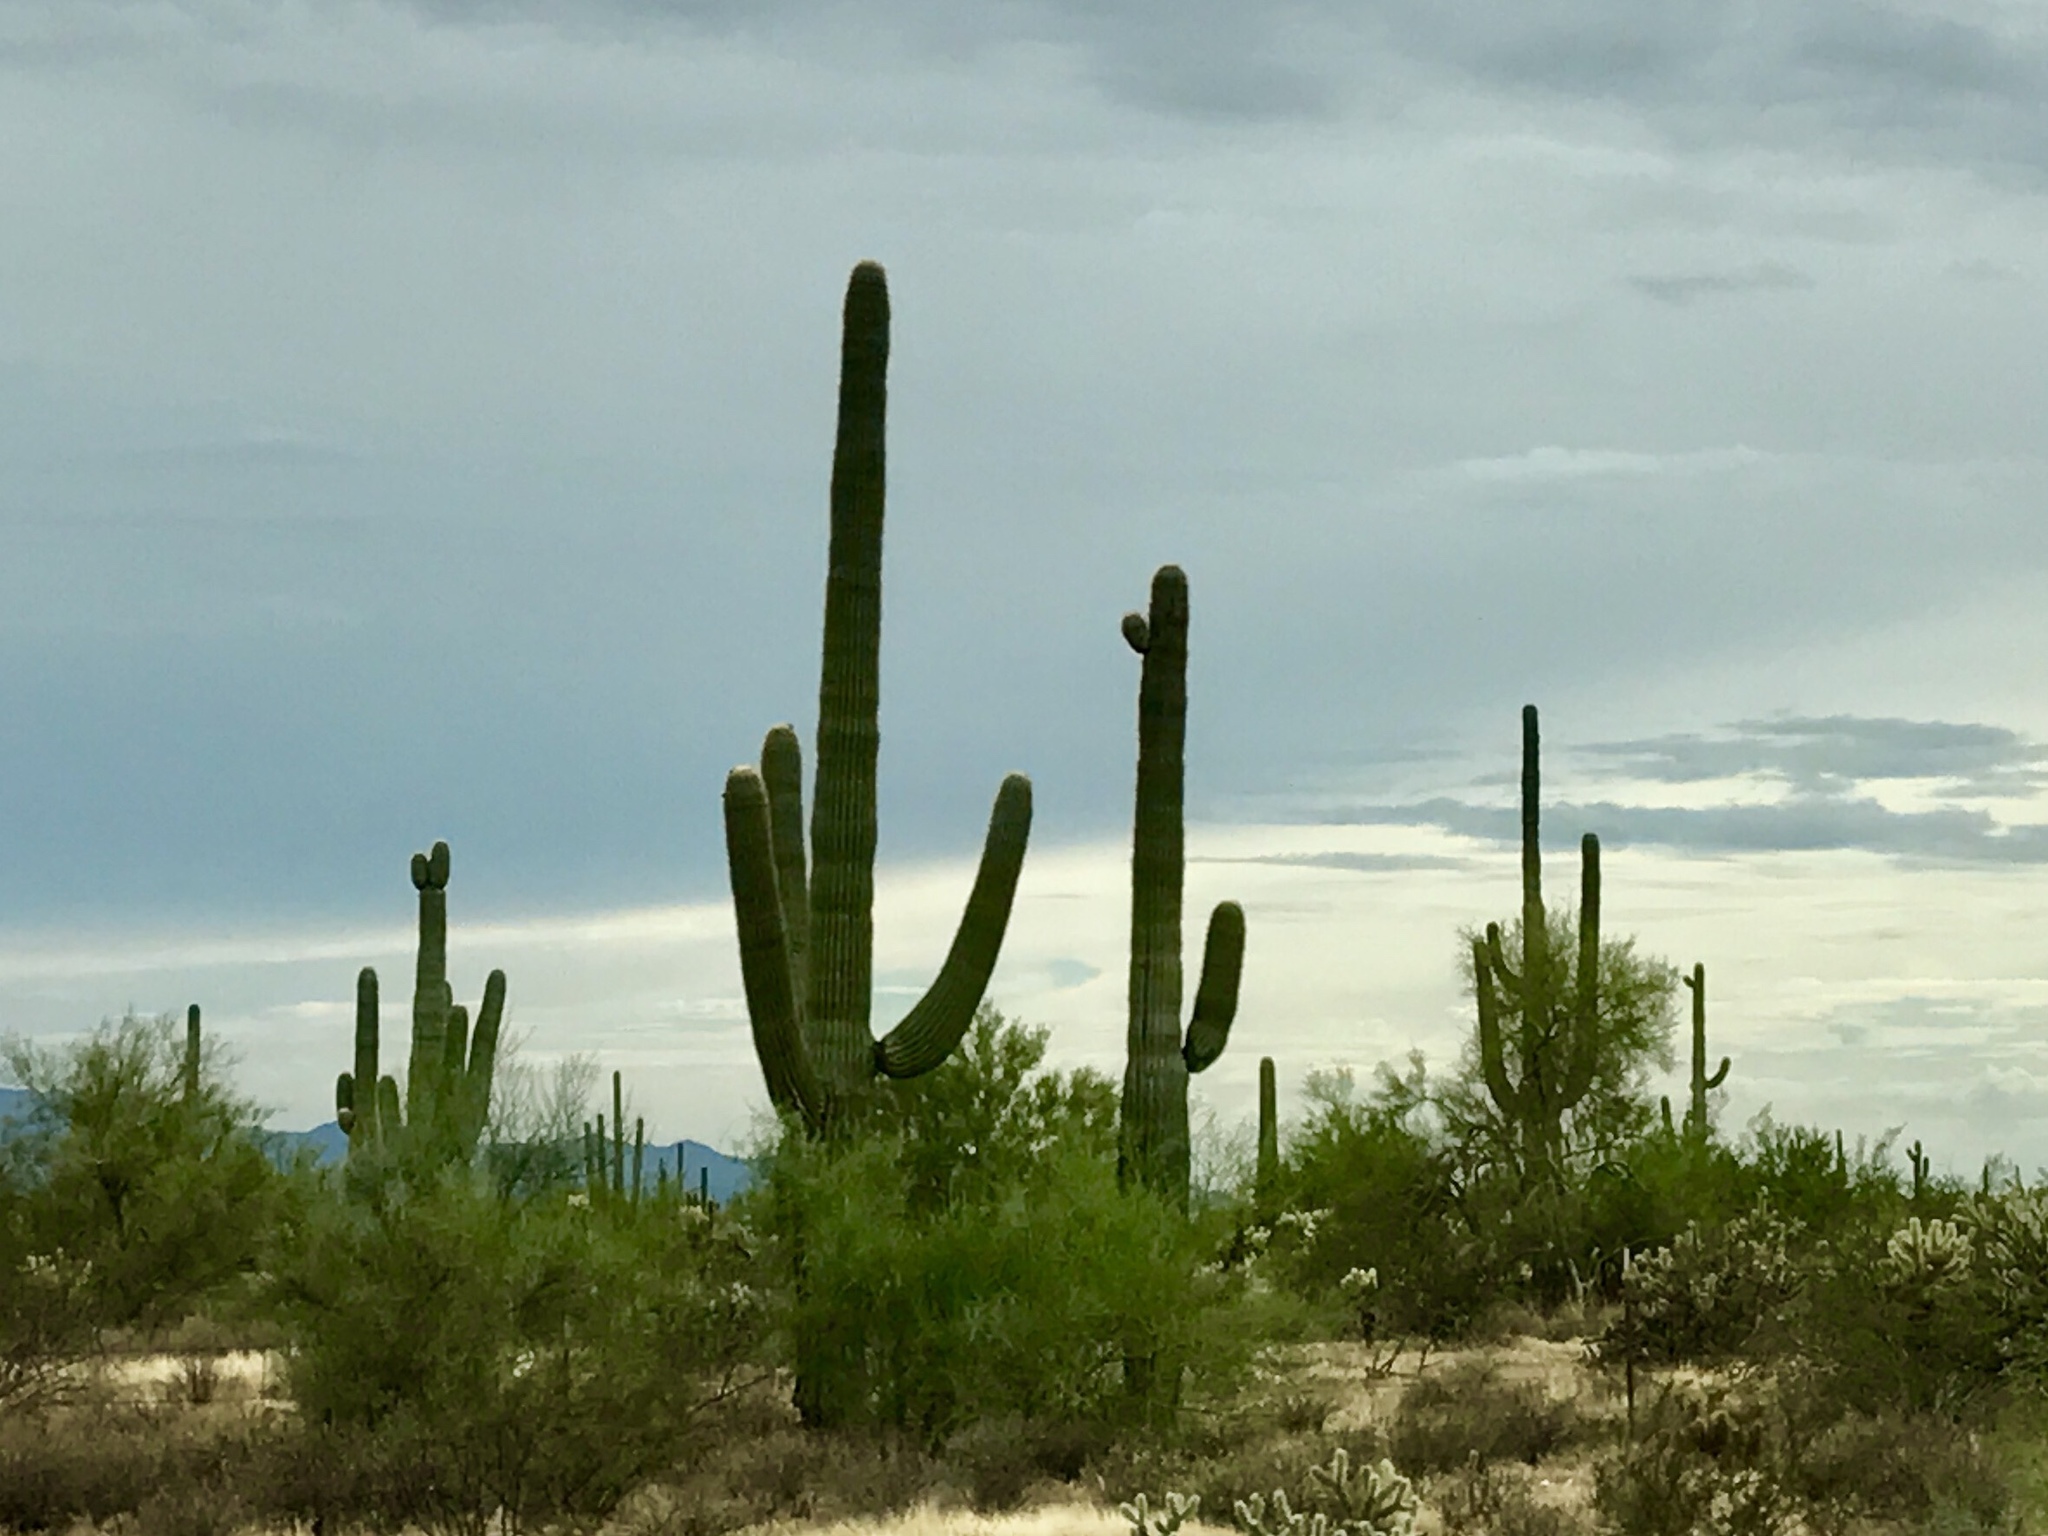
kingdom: Plantae
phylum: Tracheophyta
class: Magnoliopsida
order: Caryophyllales
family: Cactaceae
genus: Carnegiea
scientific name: Carnegiea gigantea
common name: Saguaro
